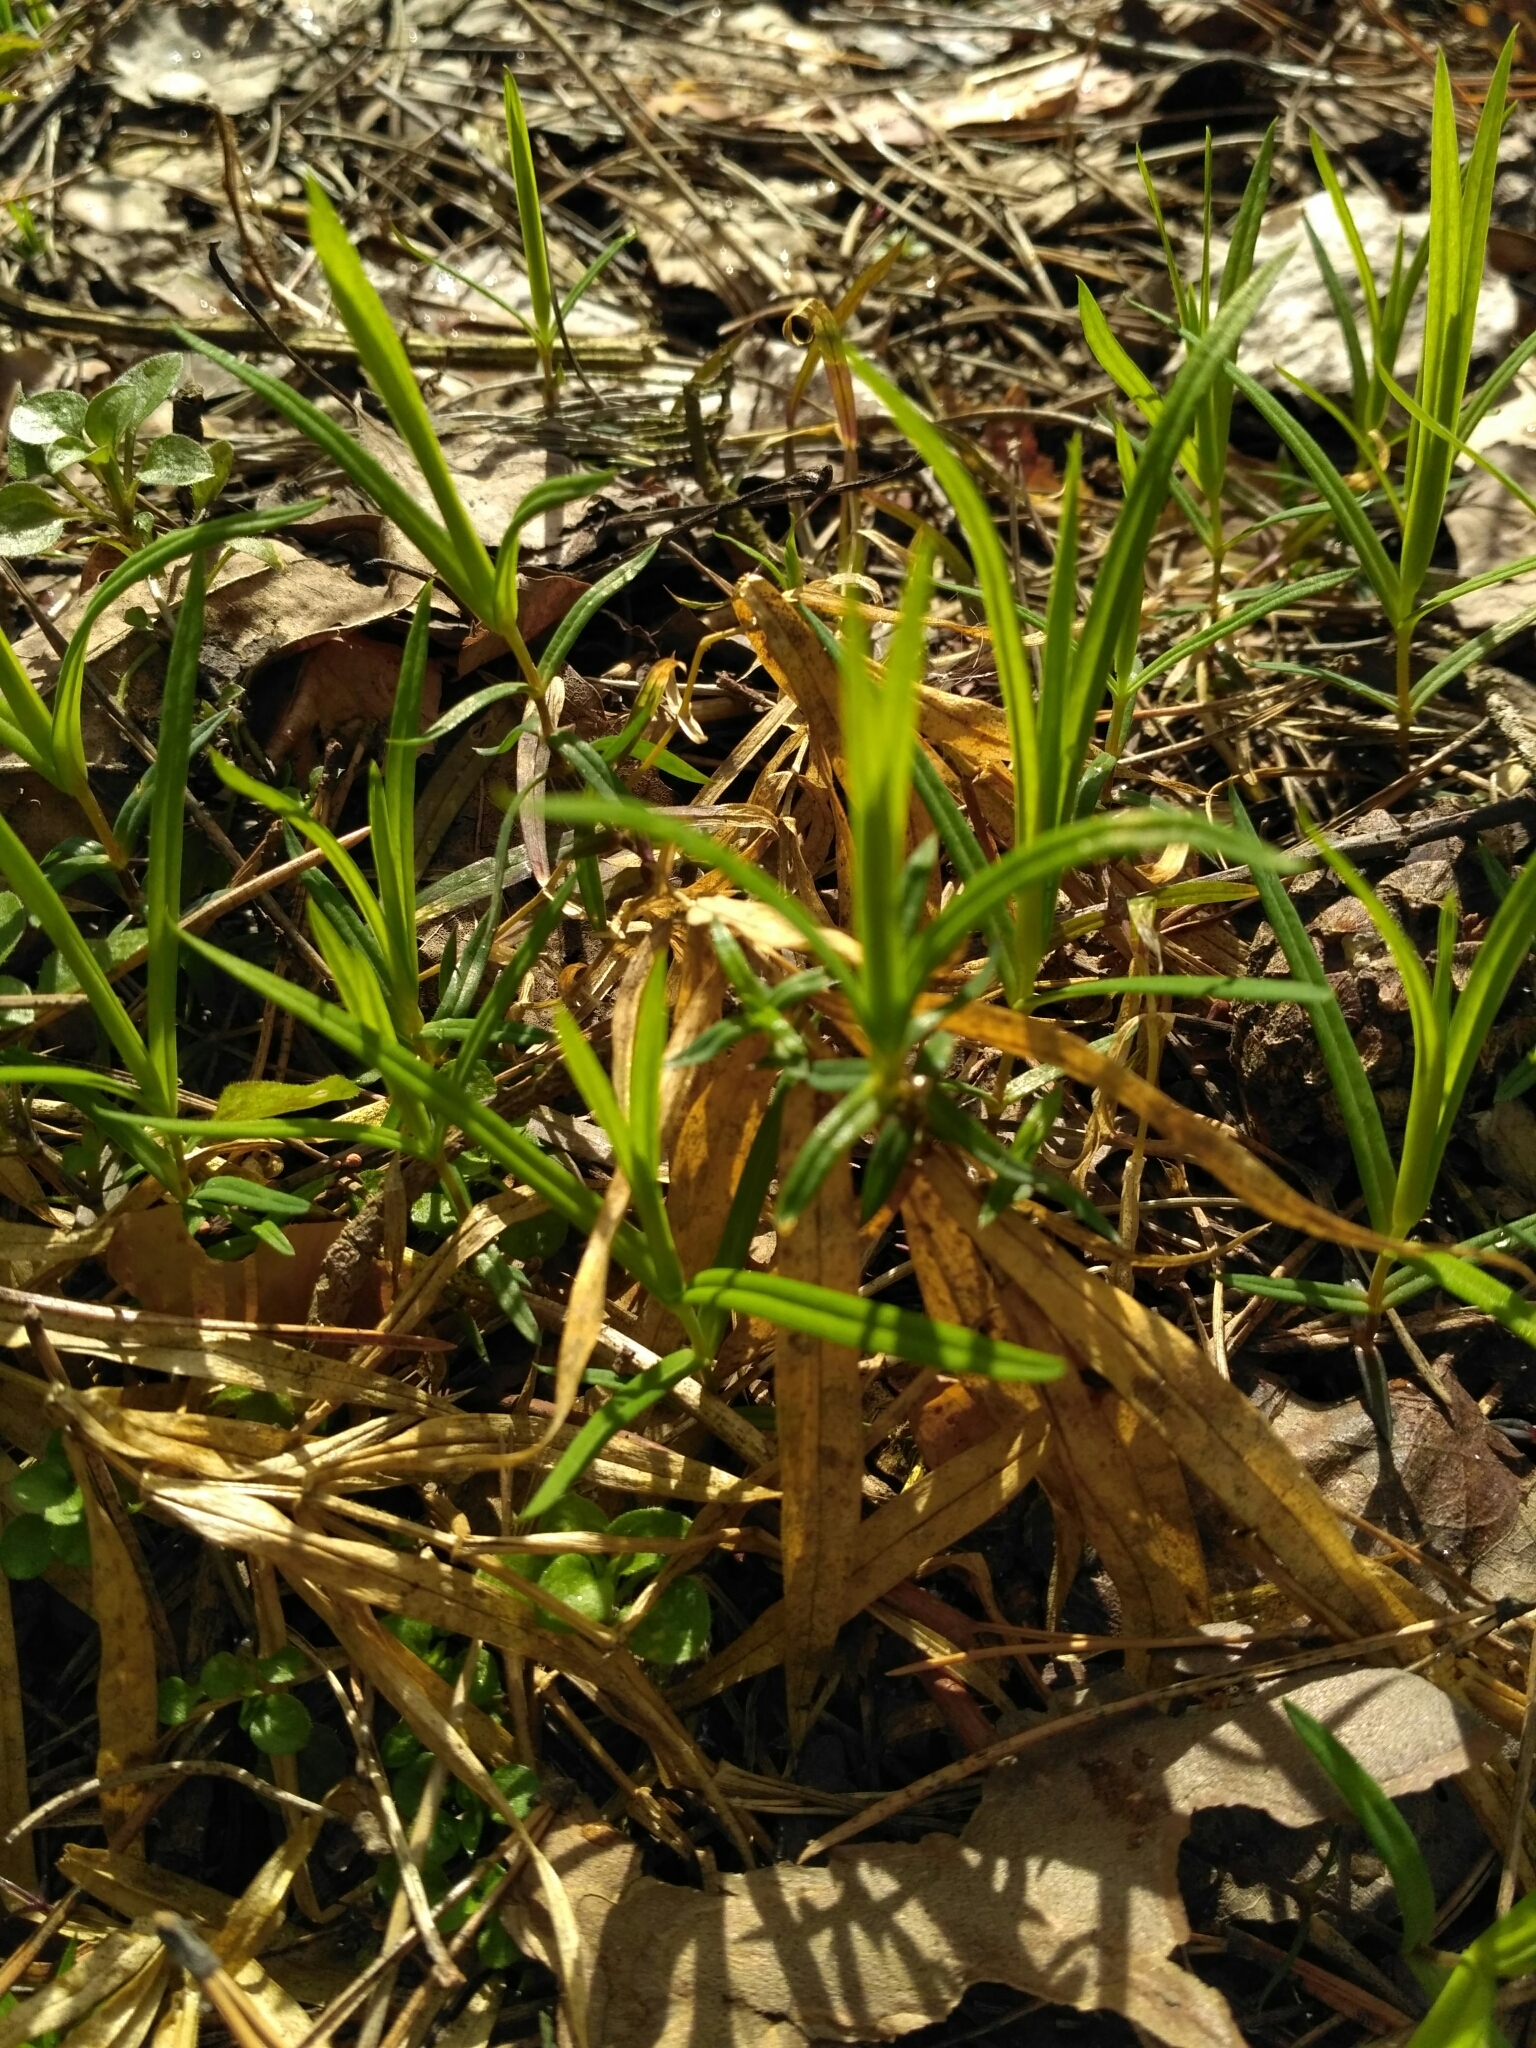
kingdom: Plantae
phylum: Tracheophyta
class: Magnoliopsida
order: Caryophyllales
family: Caryophyllaceae
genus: Rabelera
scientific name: Rabelera holostea
